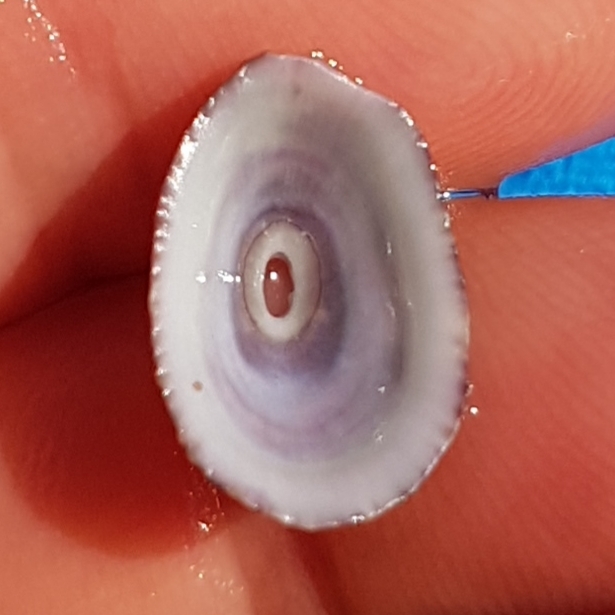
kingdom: Animalia
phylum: Mollusca
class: Gastropoda
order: Lepetellida
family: Fissurellidae
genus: Fissurella
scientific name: Fissurella nubecula
